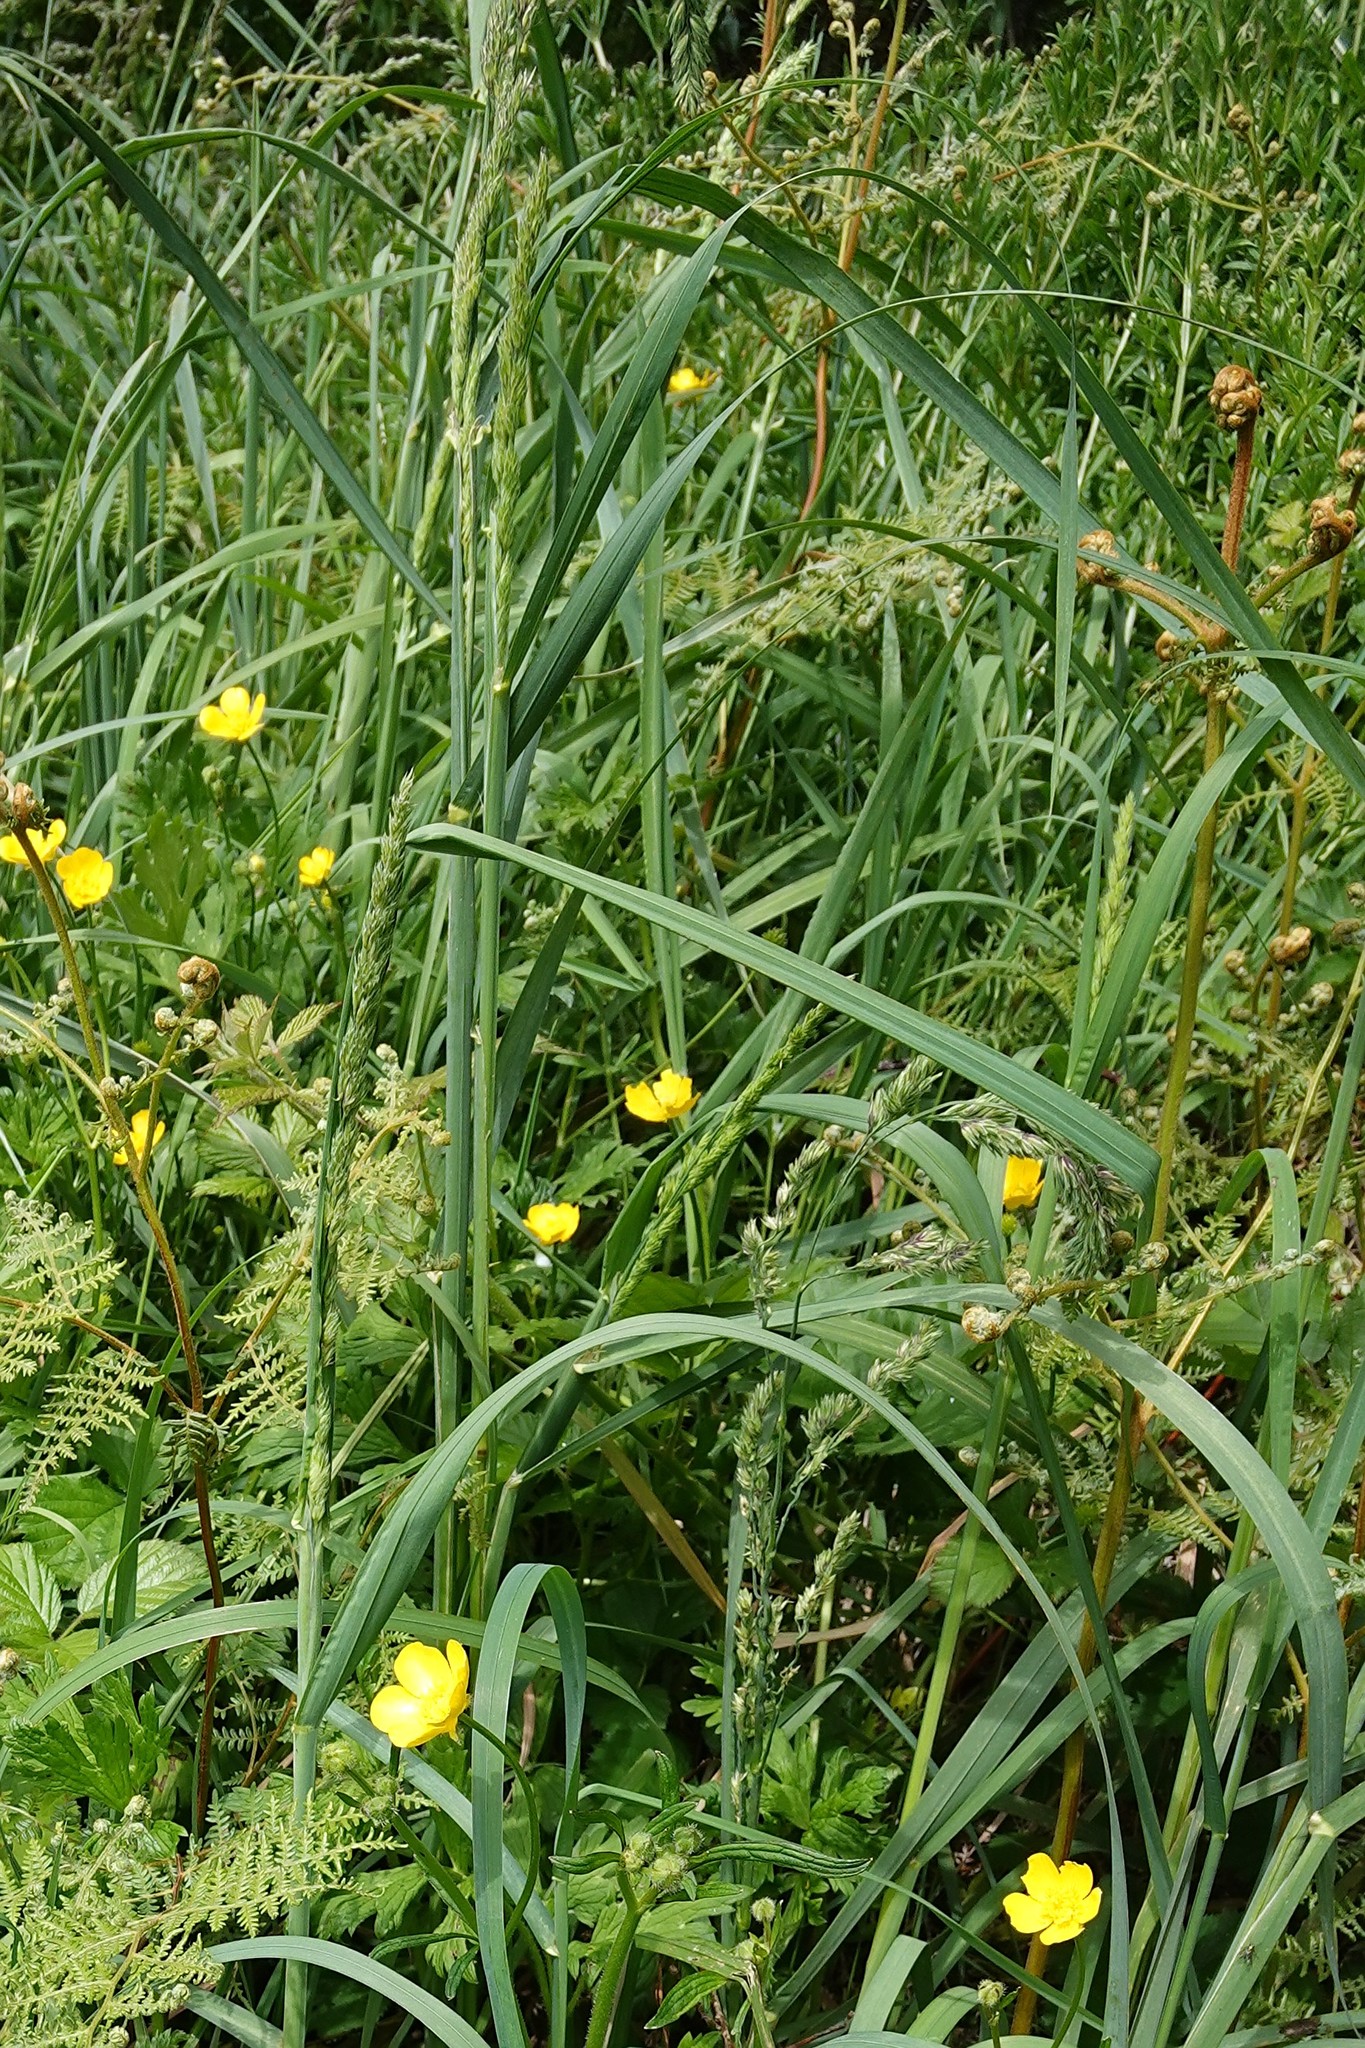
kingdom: Plantae
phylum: Tracheophyta
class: Liliopsida
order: Poales
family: Poaceae
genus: Dactylis
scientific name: Dactylis glomerata
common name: Orchardgrass
